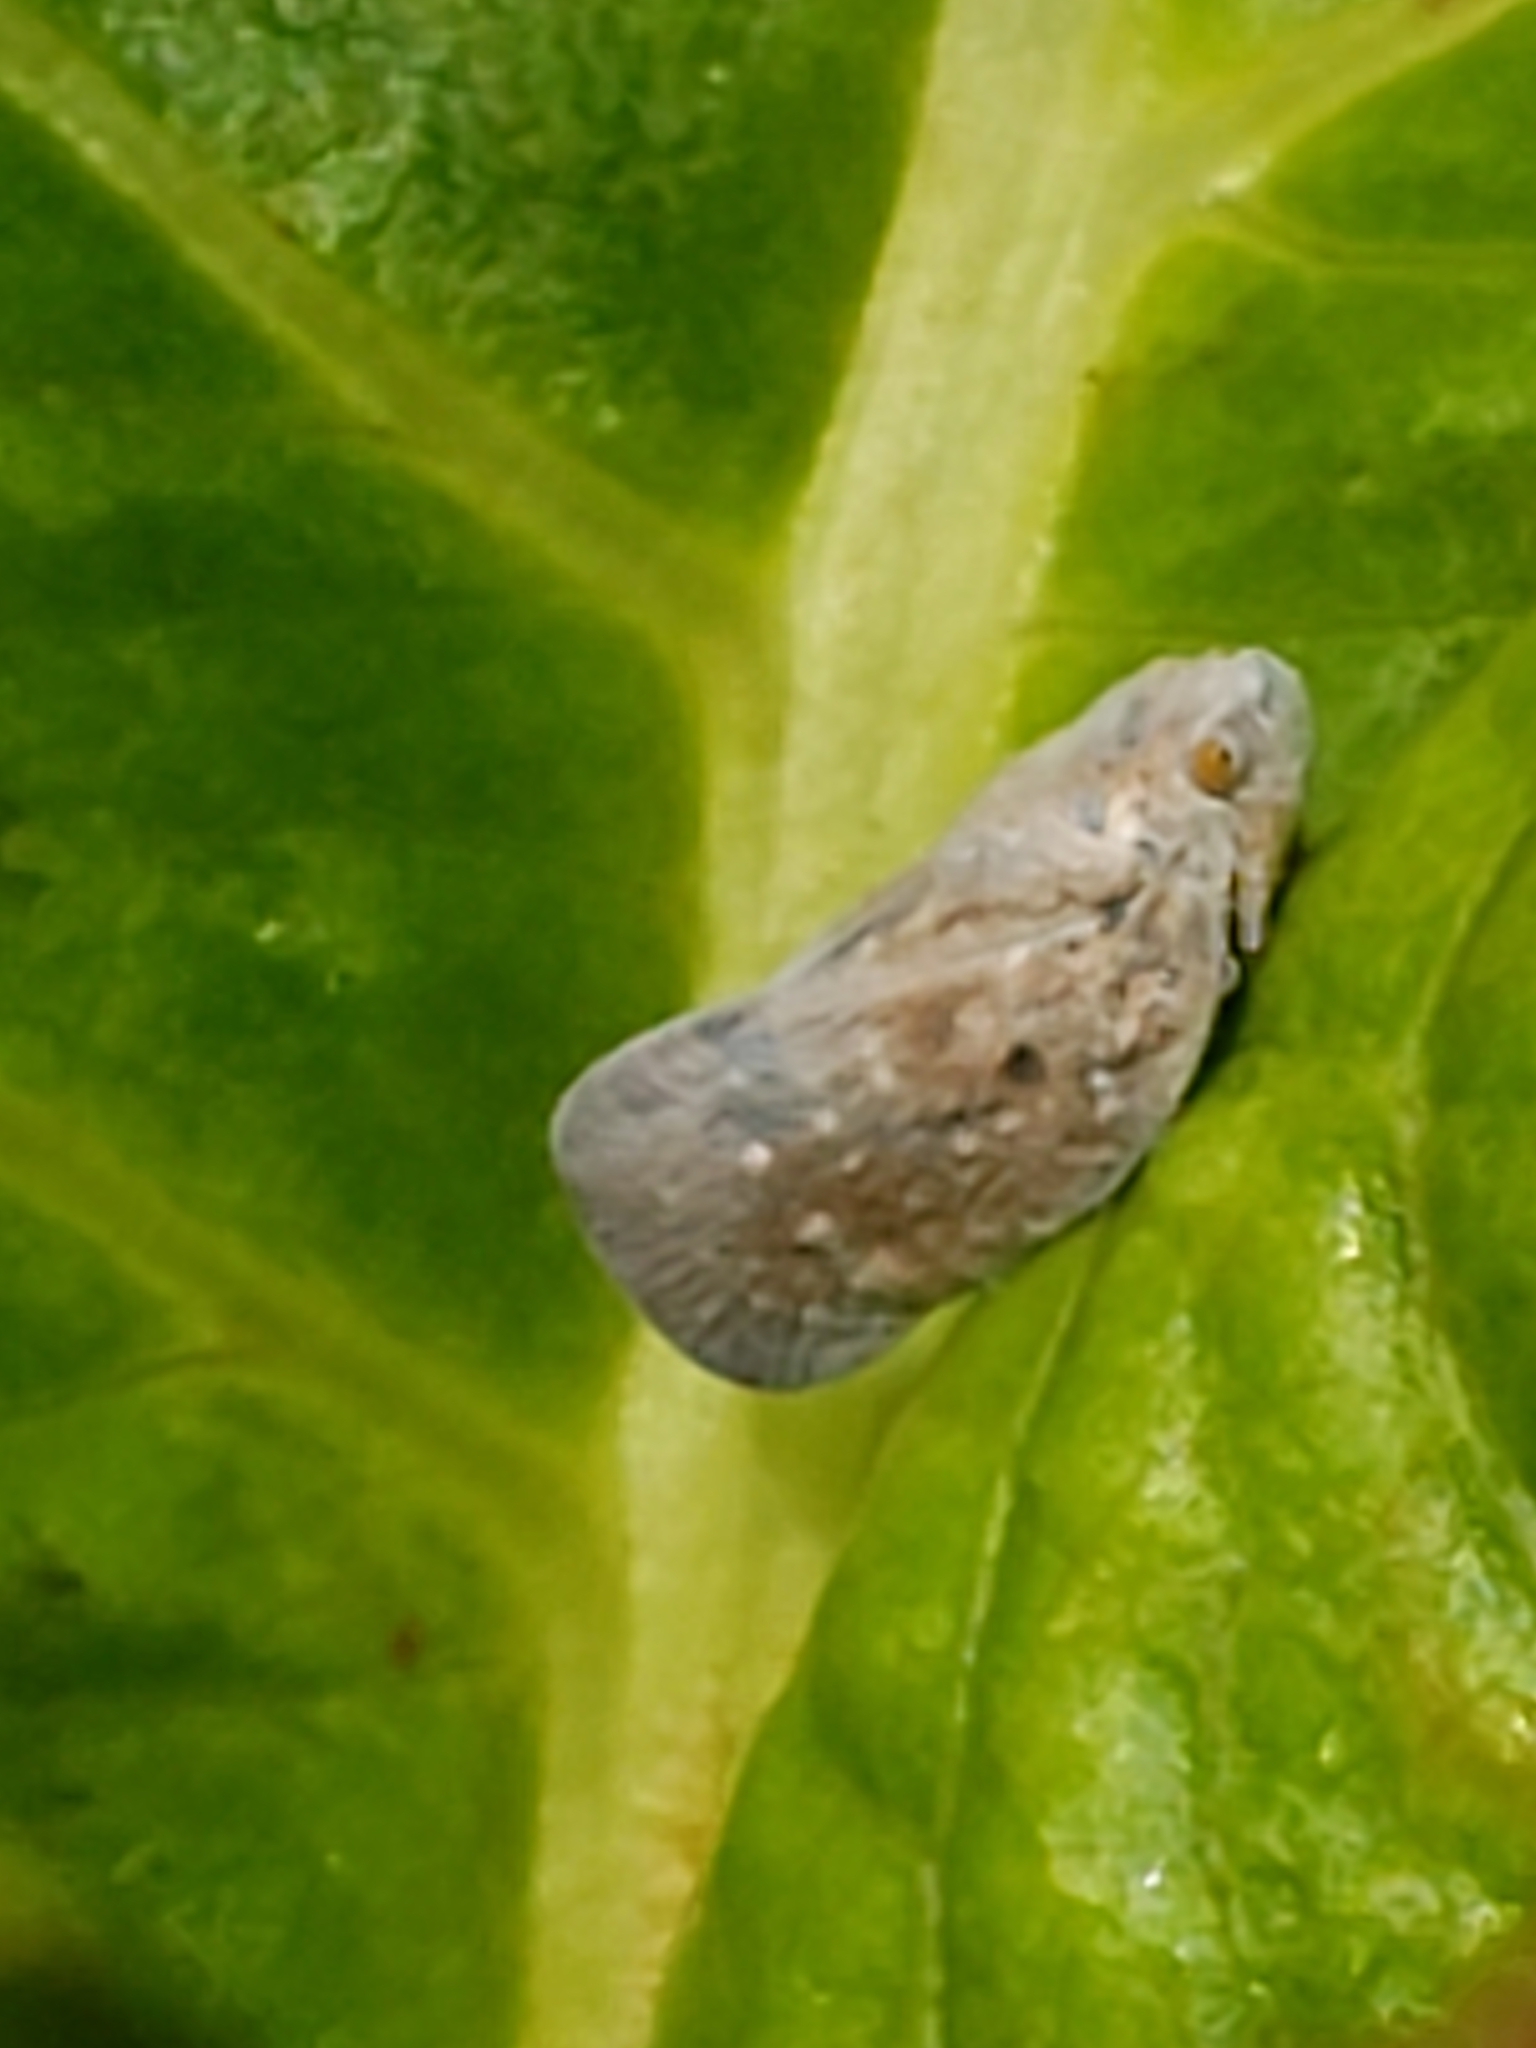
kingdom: Animalia
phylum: Arthropoda
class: Insecta
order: Hemiptera
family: Flatidae
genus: Metcalfa
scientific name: Metcalfa pruinosa
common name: Citrus flatid planthopper
